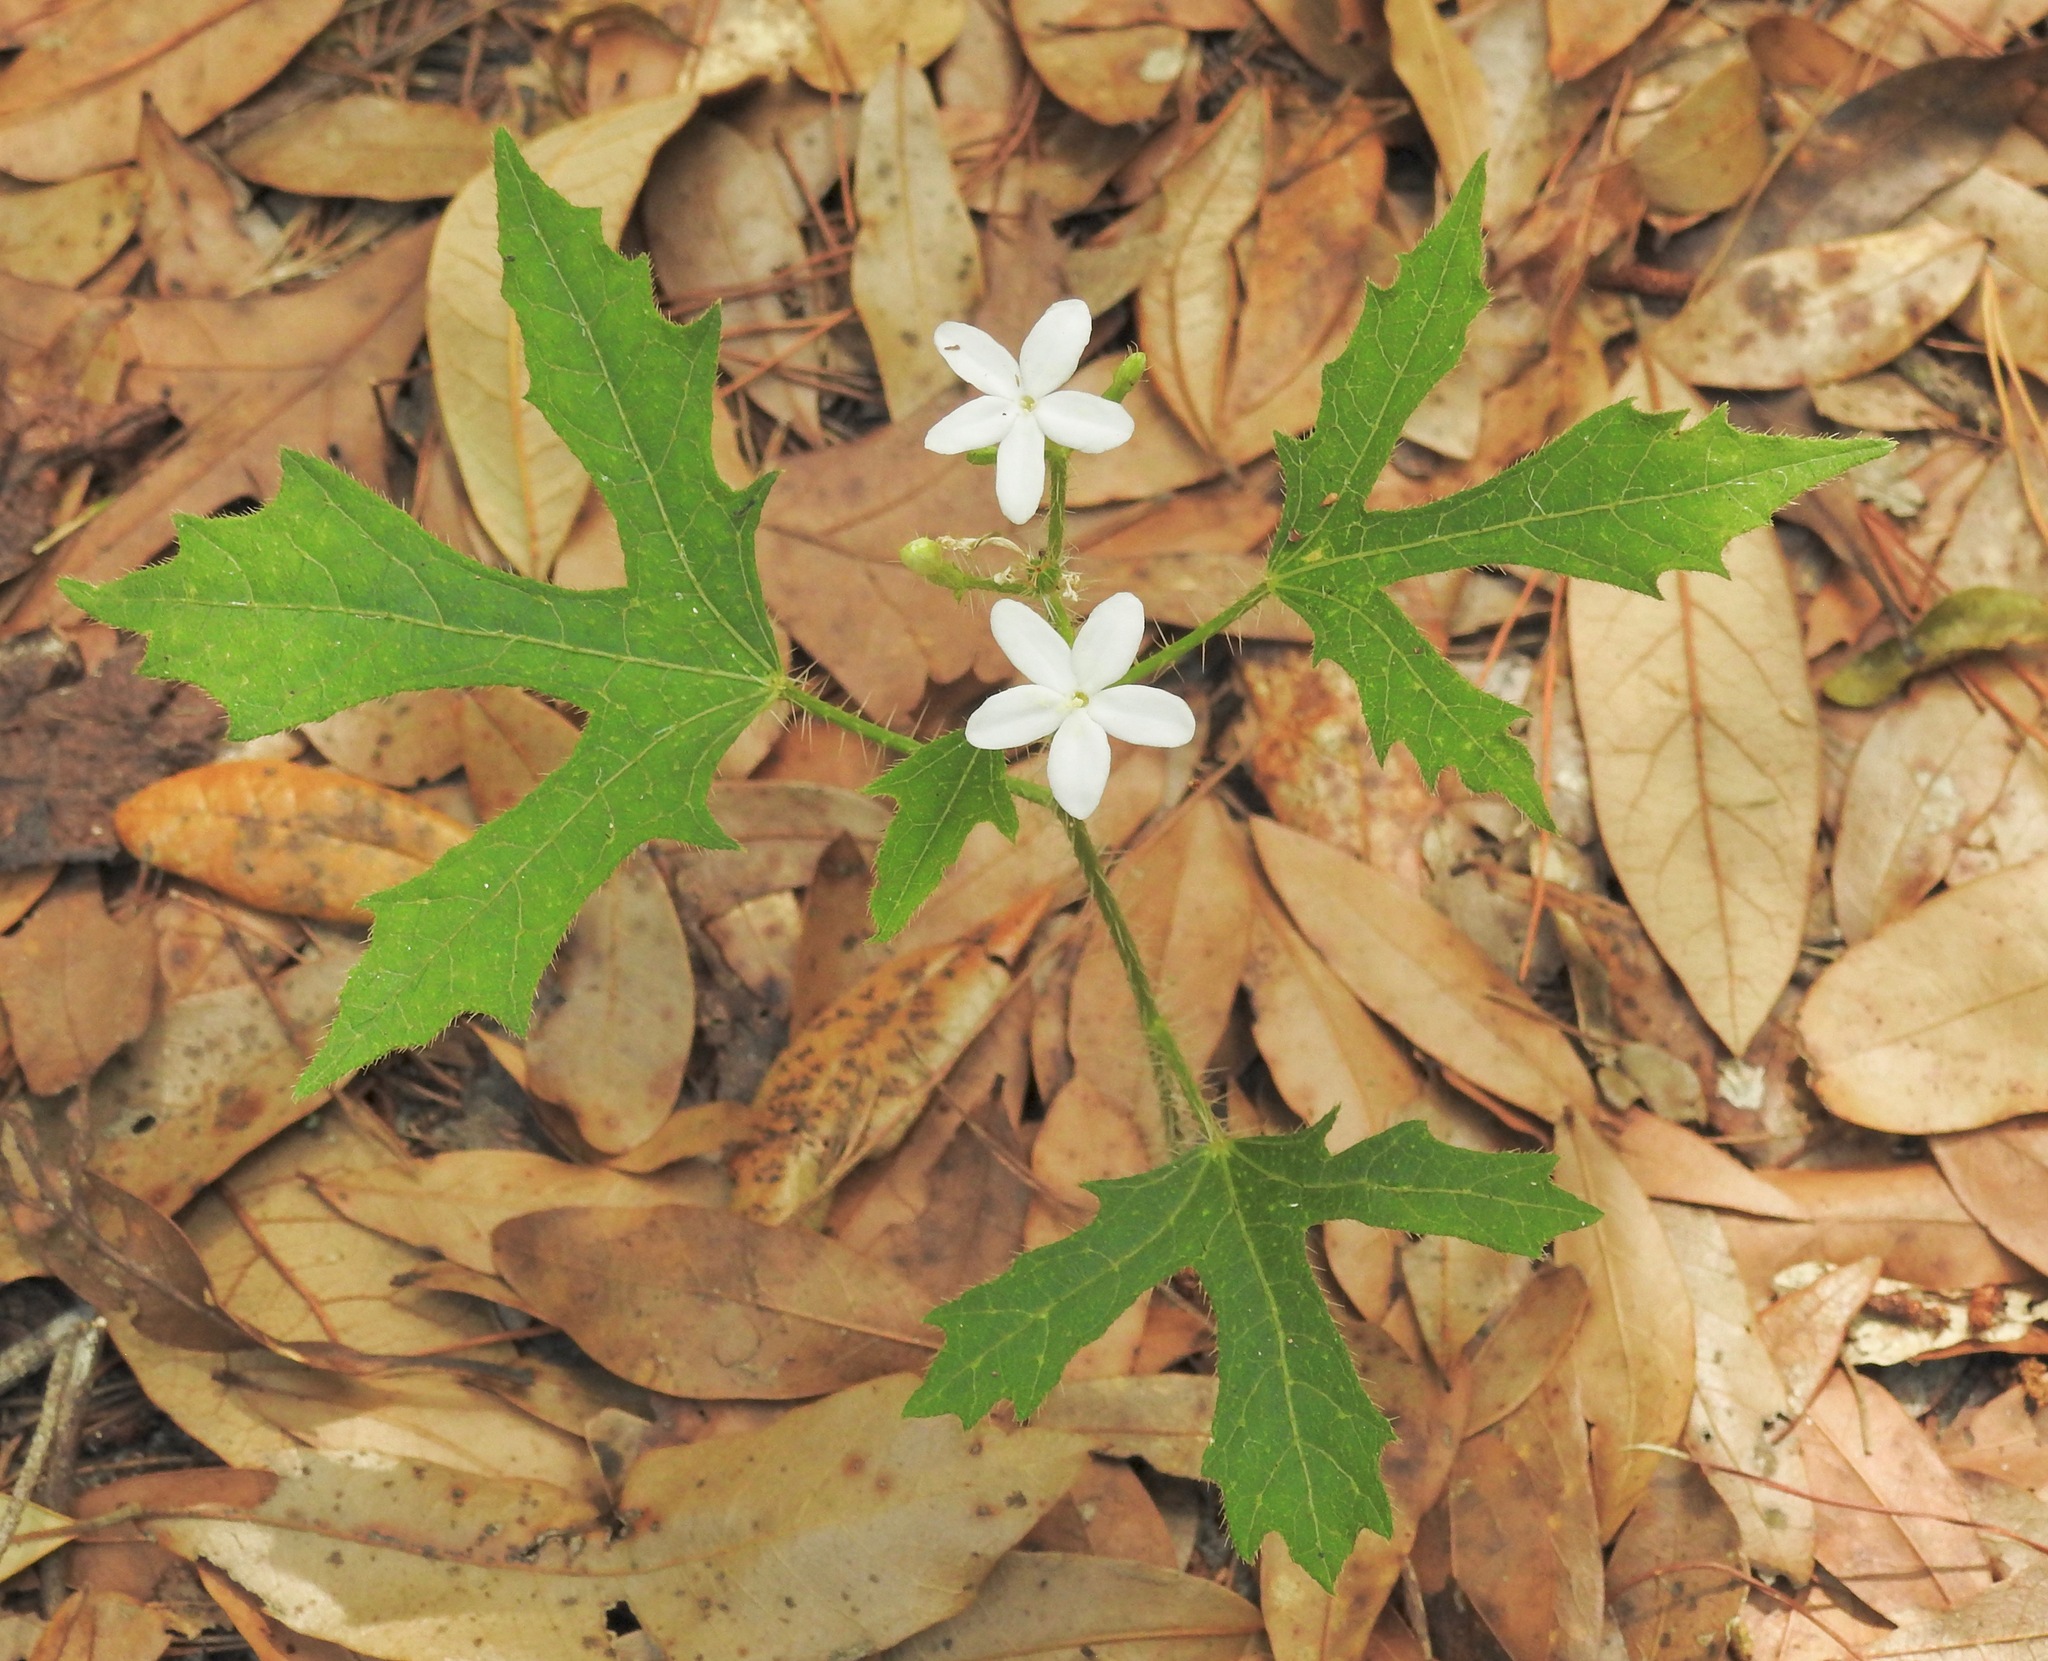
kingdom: Plantae
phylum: Tracheophyta
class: Magnoliopsida
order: Malpighiales
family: Euphorbiaceae
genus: Cnidoscolus
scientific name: Cnidoscolus stimulosus
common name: Bull-nettle
